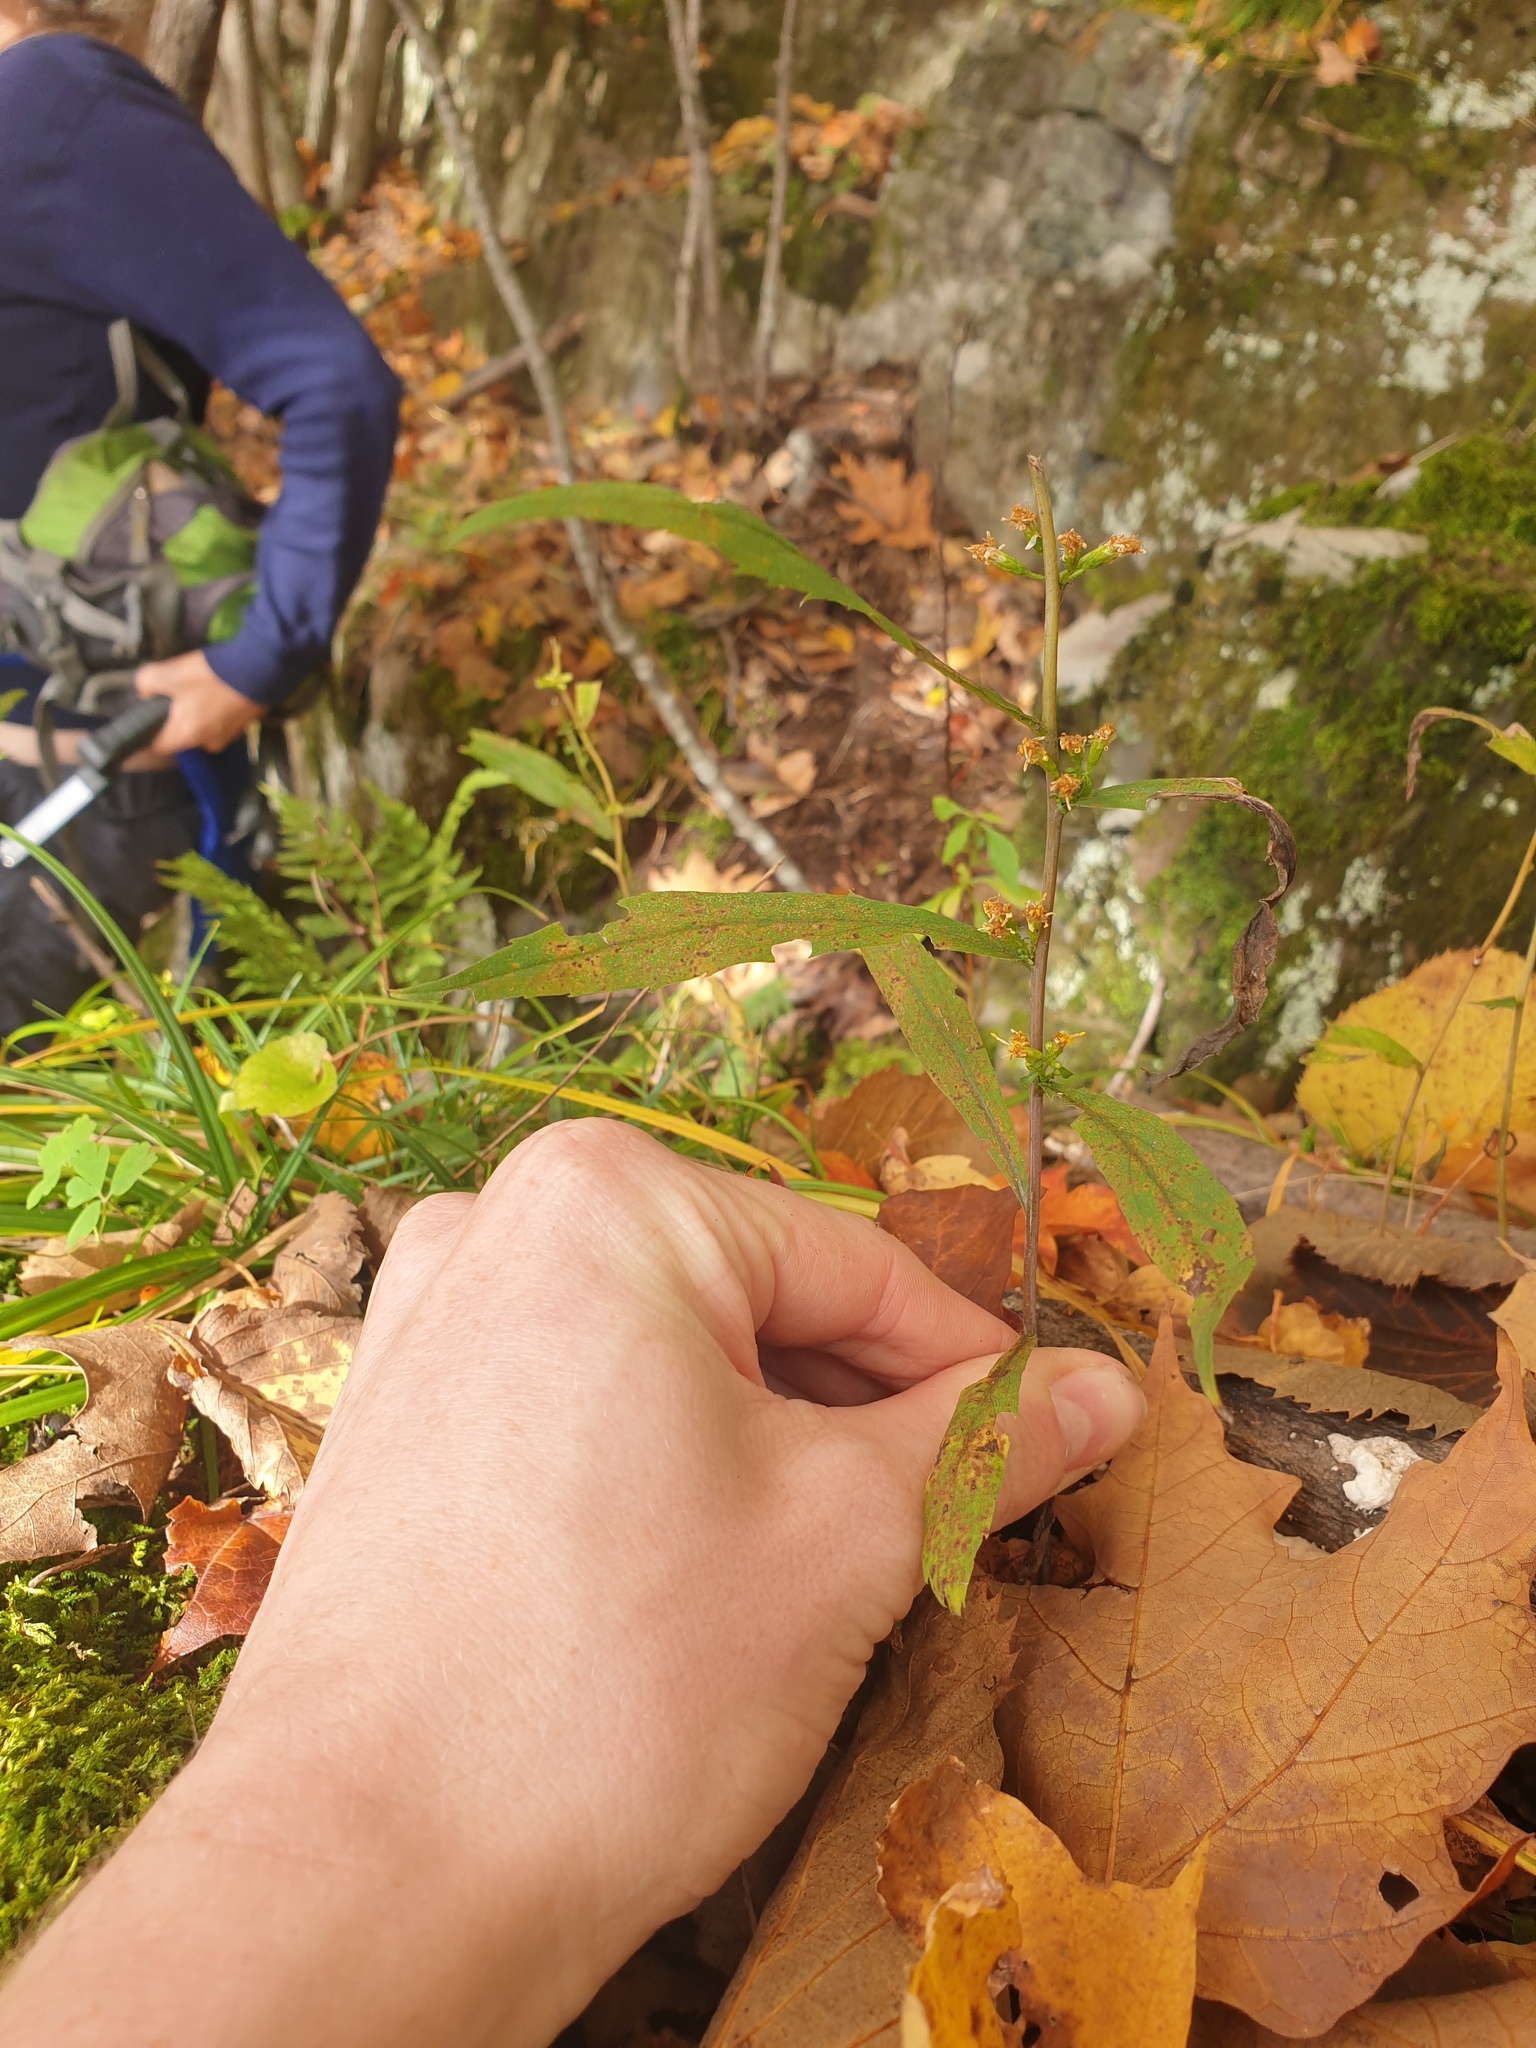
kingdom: Plantae
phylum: Tracheophyta
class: Magnoliopsida
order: Asterales
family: Asteraceae
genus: Solidago
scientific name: Solidago caesia
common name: Woodland goldenrod
